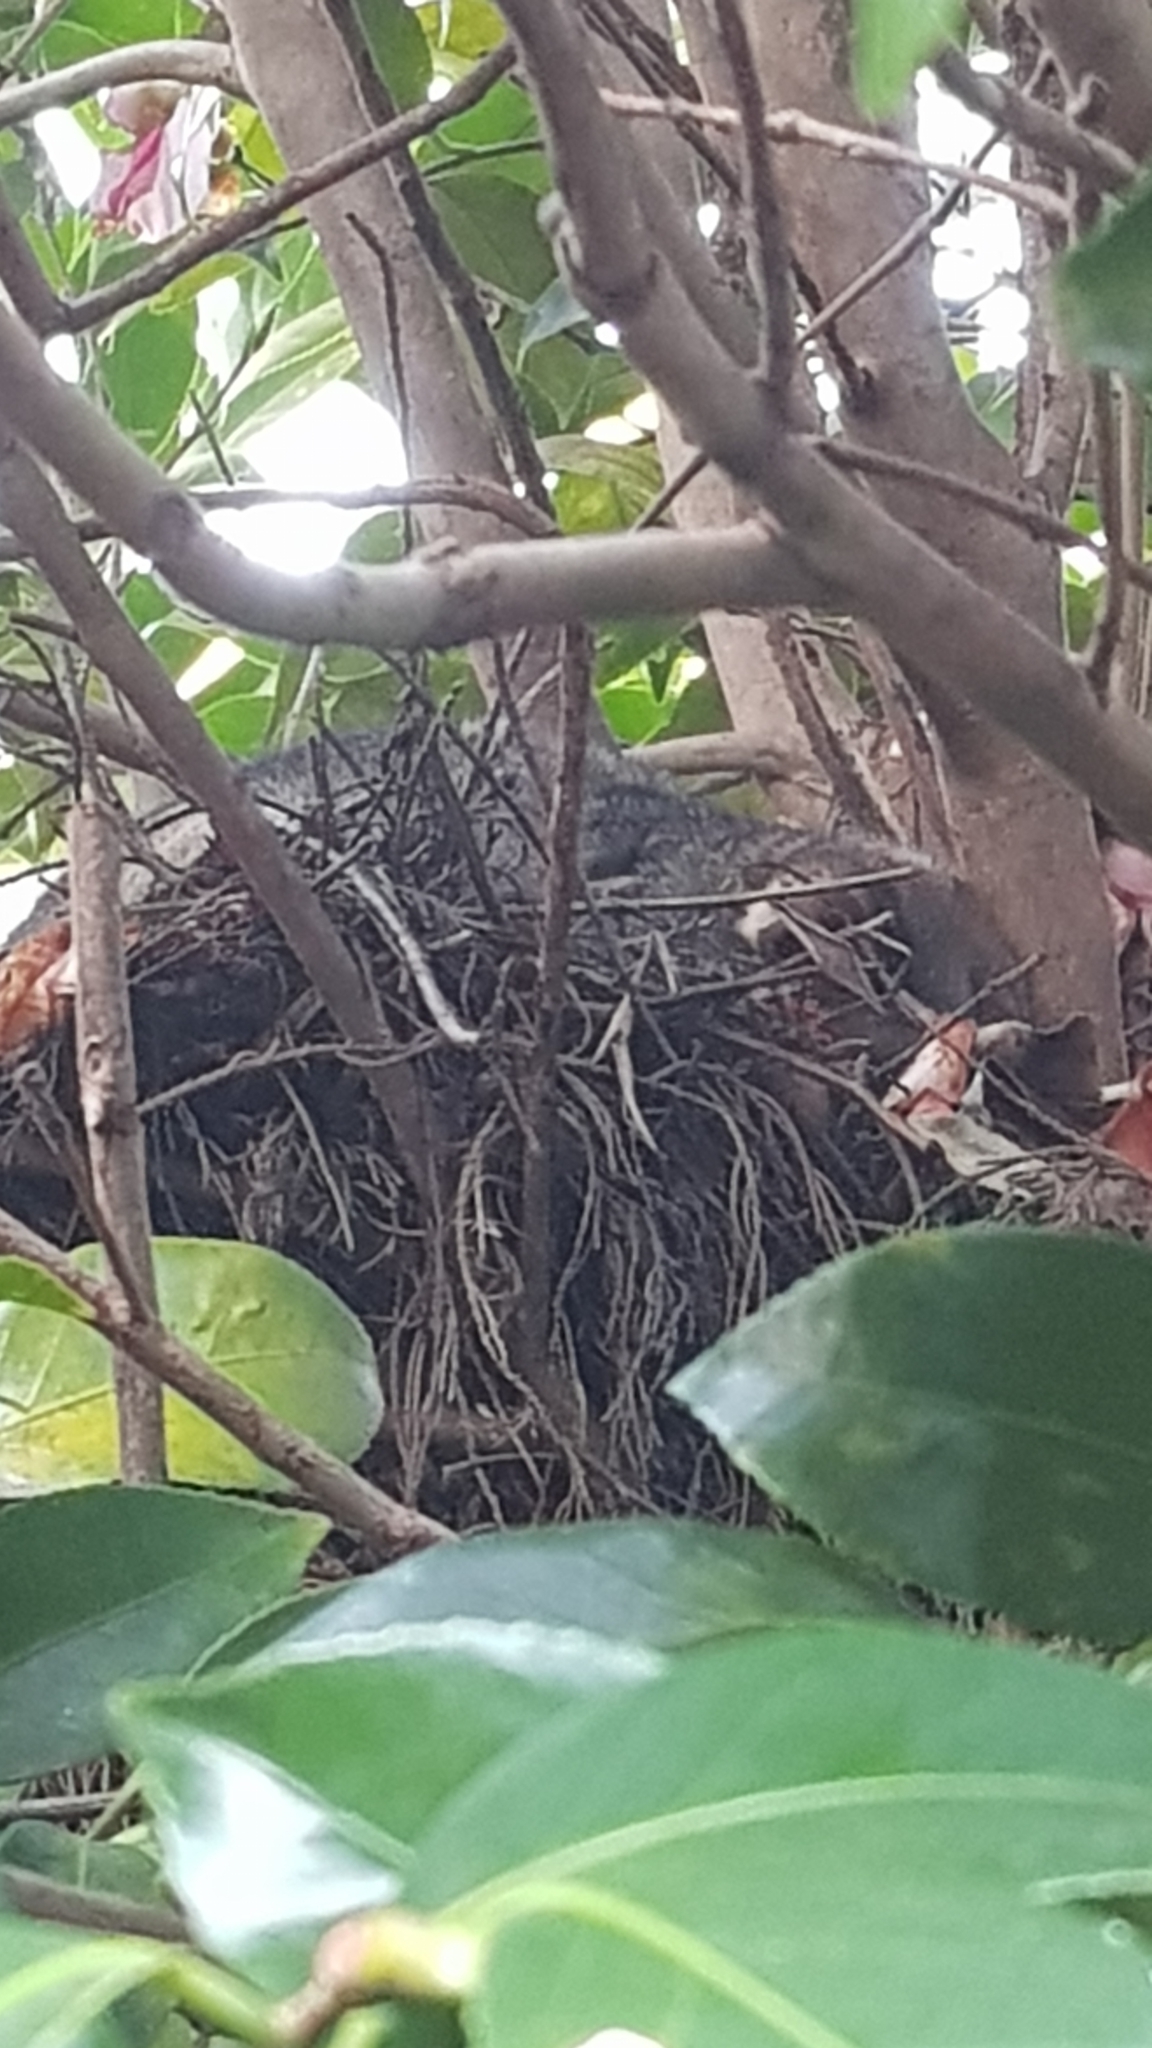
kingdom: Animalia
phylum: Chordata
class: Mammalia
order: Diprotodontia
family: Pseudocheiridae
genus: Pseudocheirus
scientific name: Pseudocheirus peregrinus
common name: Common ringtail possum
